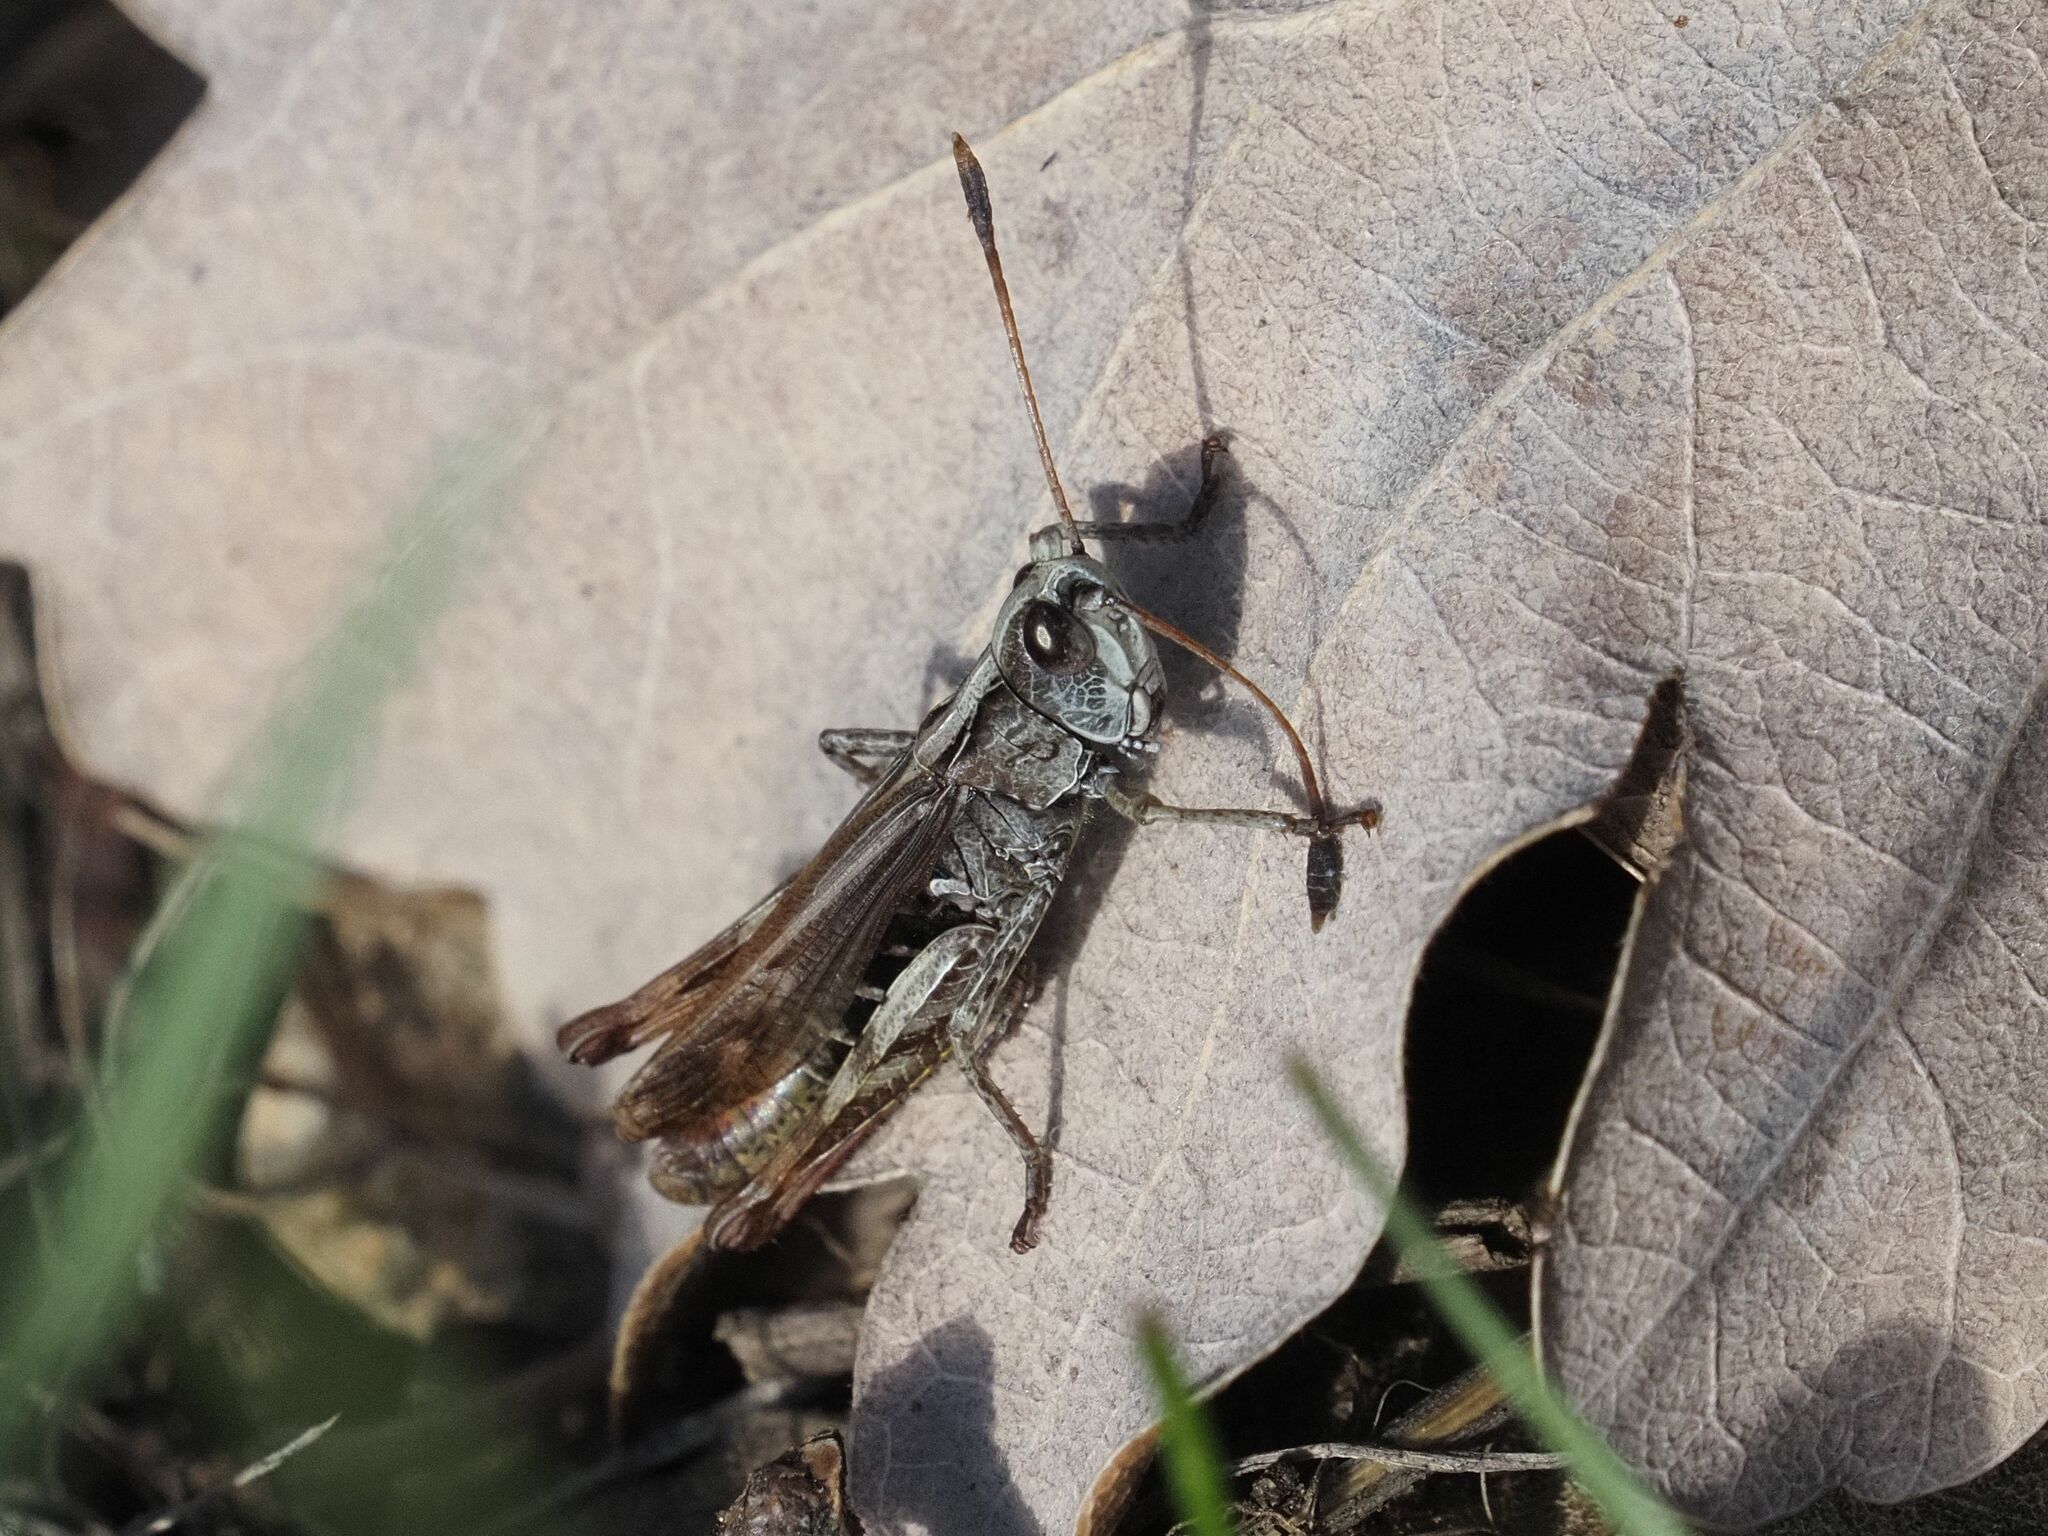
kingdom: Animalia
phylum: Arthropoda
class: Insecta
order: Orthoptera
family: Acrididae
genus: Gomphocerippus
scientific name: Gomphocerippus rufus
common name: Rufous grasshopper
